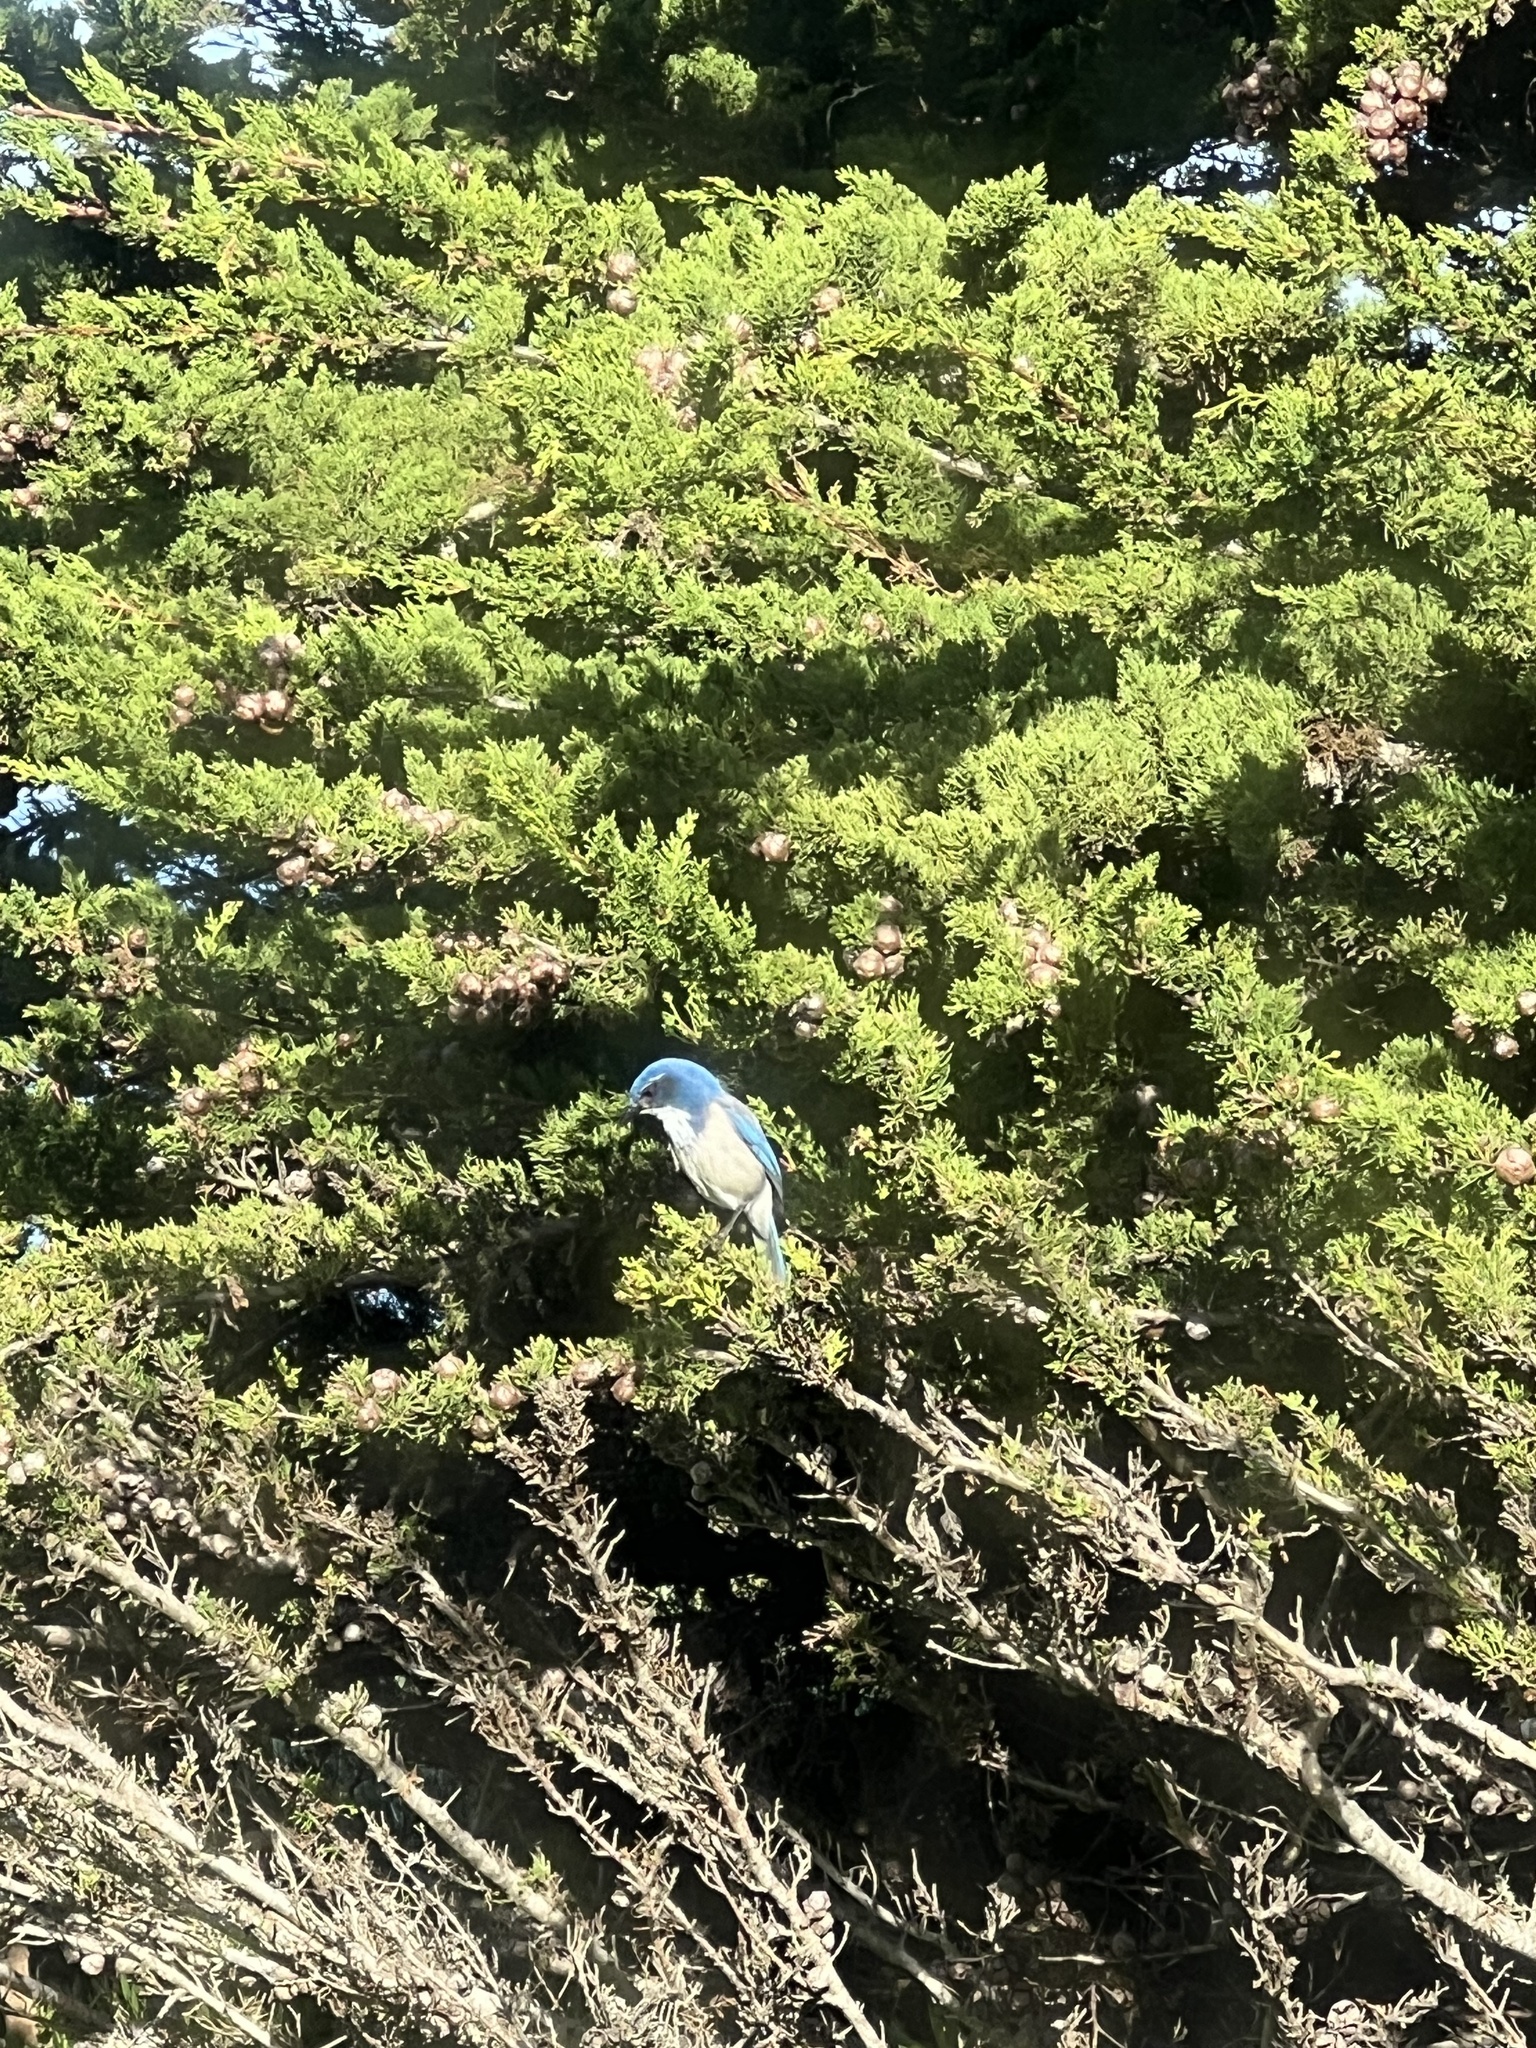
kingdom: Animalia
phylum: Chordata
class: Aves
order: Passeriformes
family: Corvidae
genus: Aphelocoma
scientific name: Aphelocoma californica
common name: California scrub-jay
